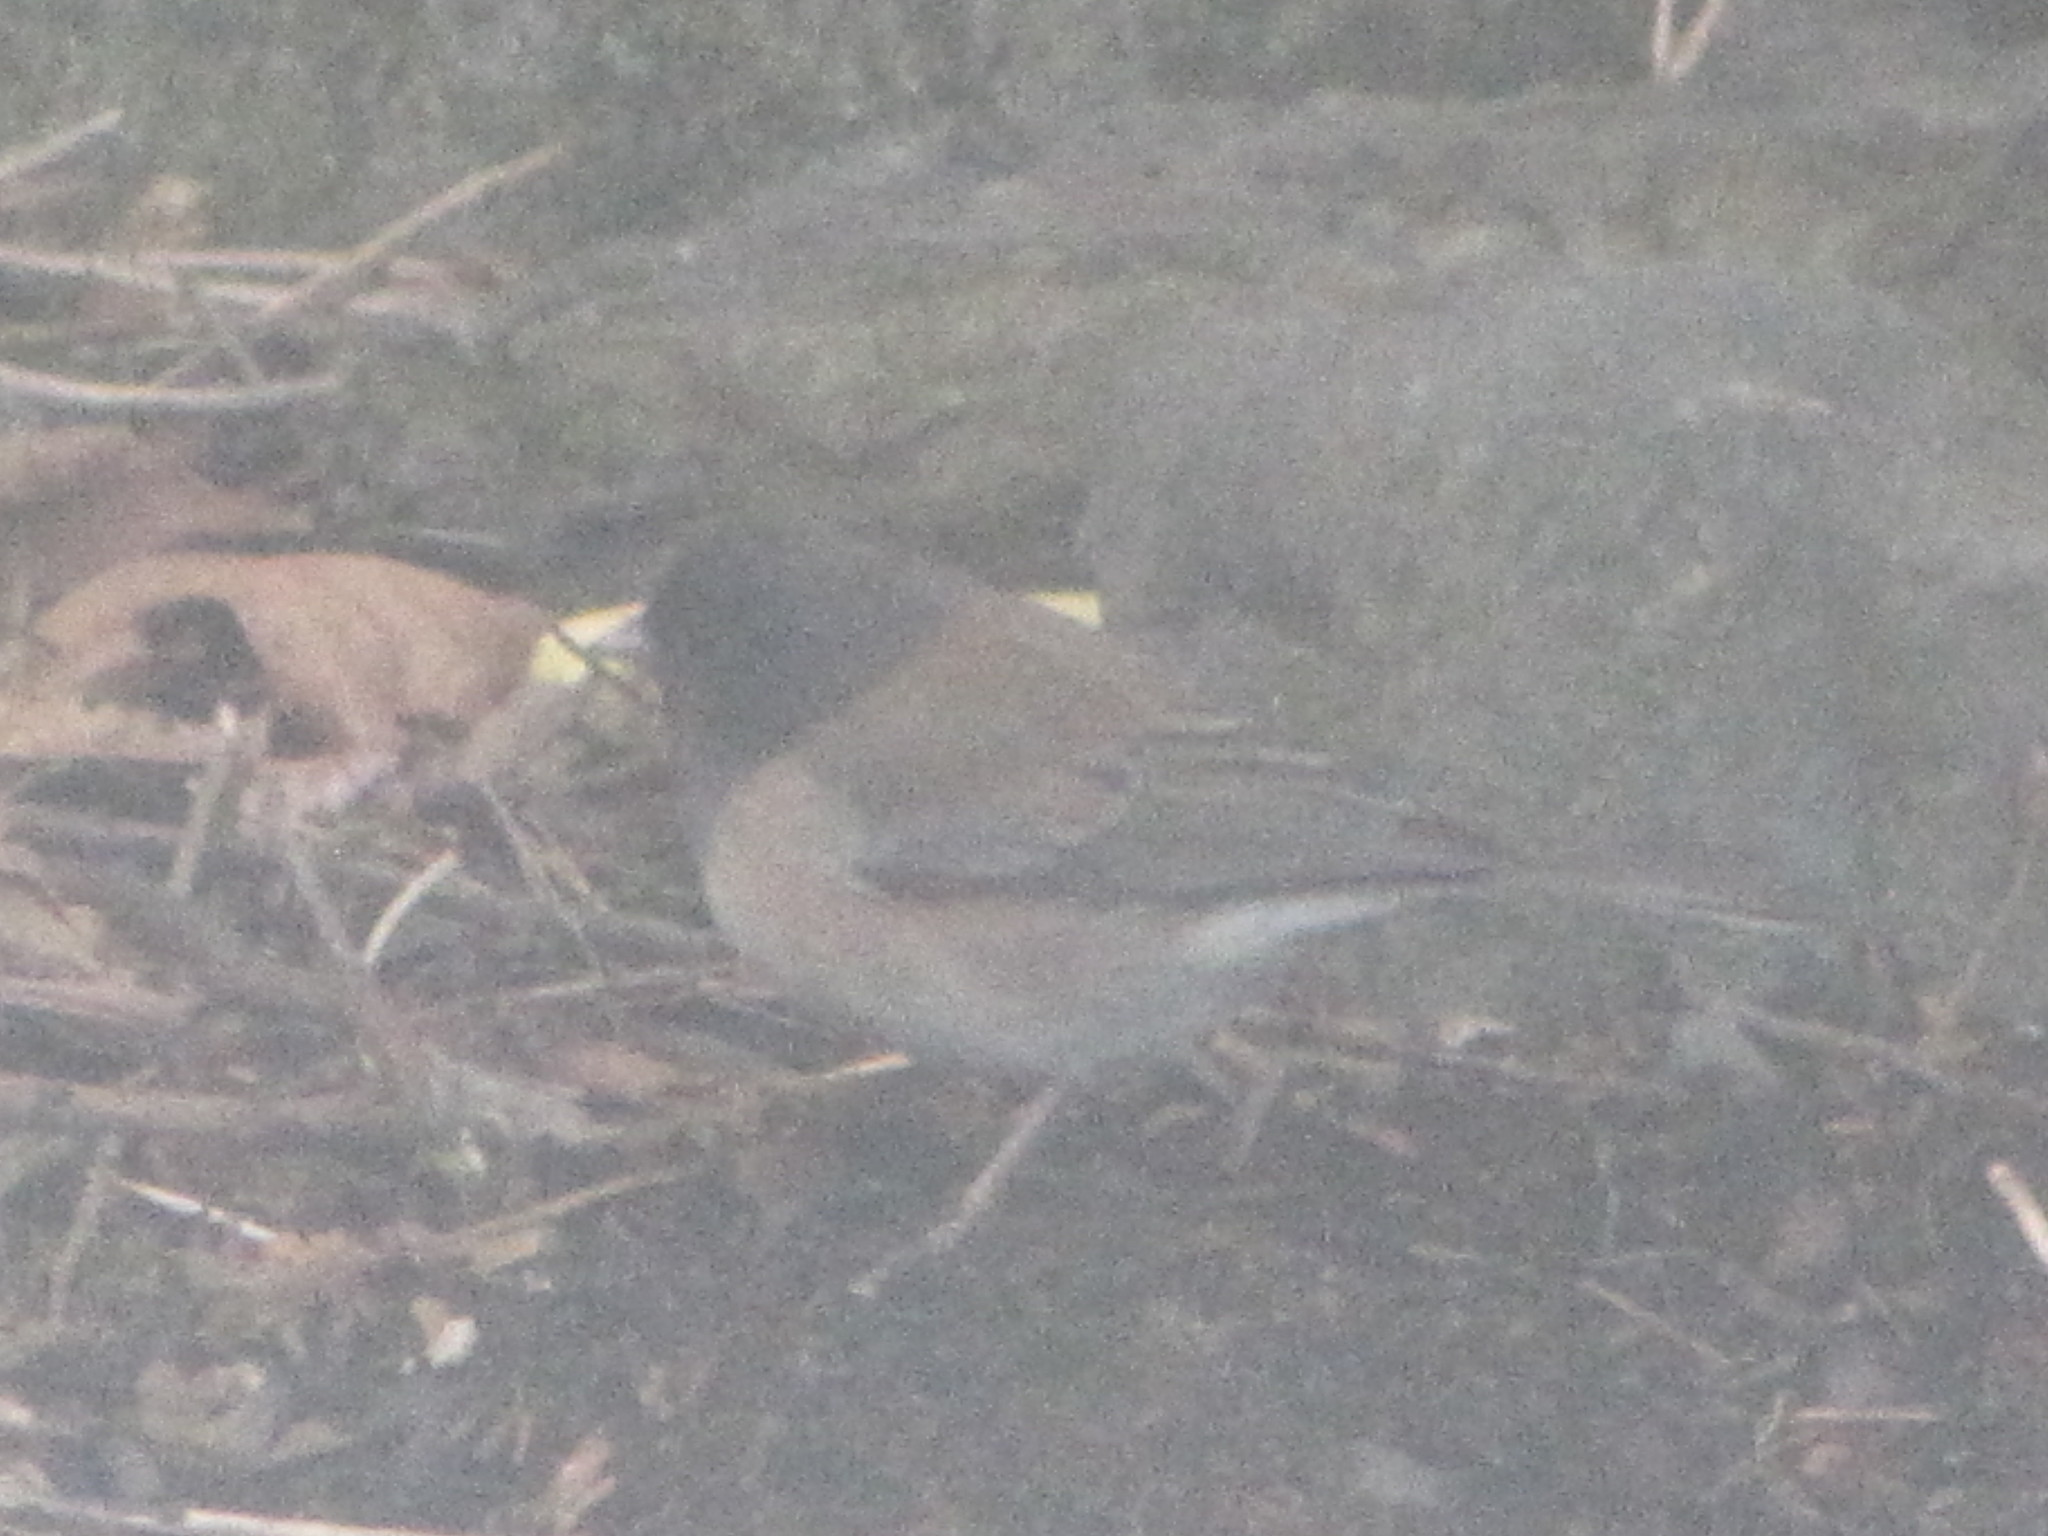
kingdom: Animalia
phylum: Chordata
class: Aves
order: Passeriformes
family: Passerellidae
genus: Junco
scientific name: Junco hyemalis
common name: Dark-eyed junco
